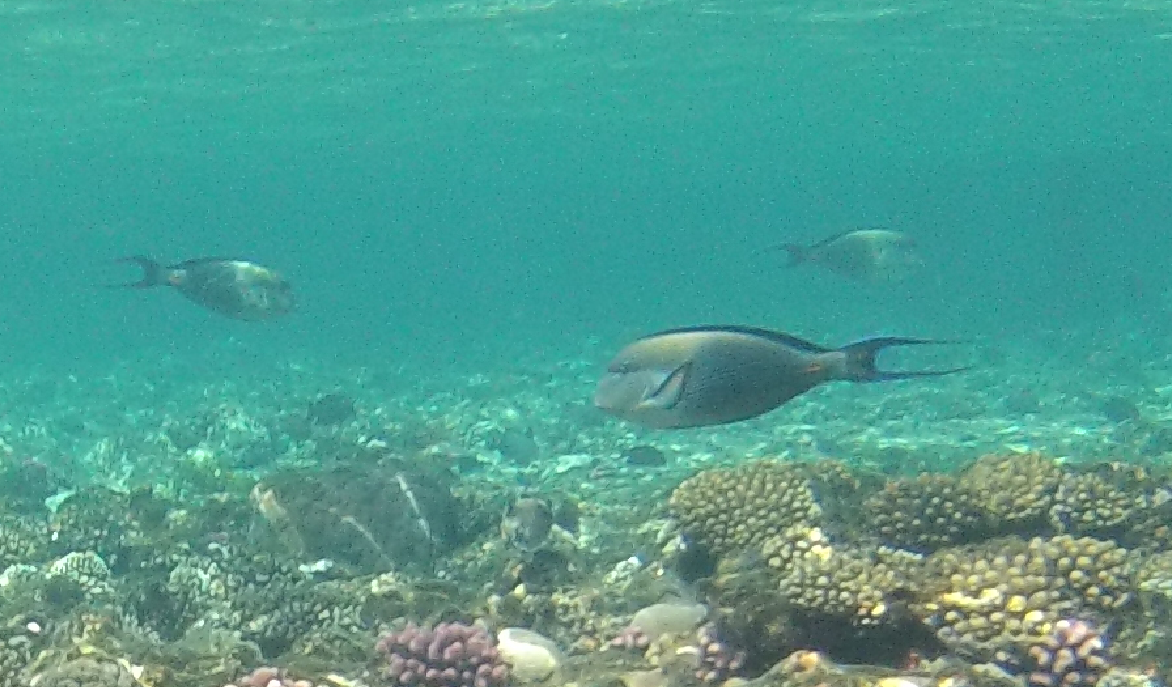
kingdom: Animalia
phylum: Chordata
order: Perciformes
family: Acanthuridae
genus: Acanthurus
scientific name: Acanthurus sohal
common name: Red sea surgeonfish
